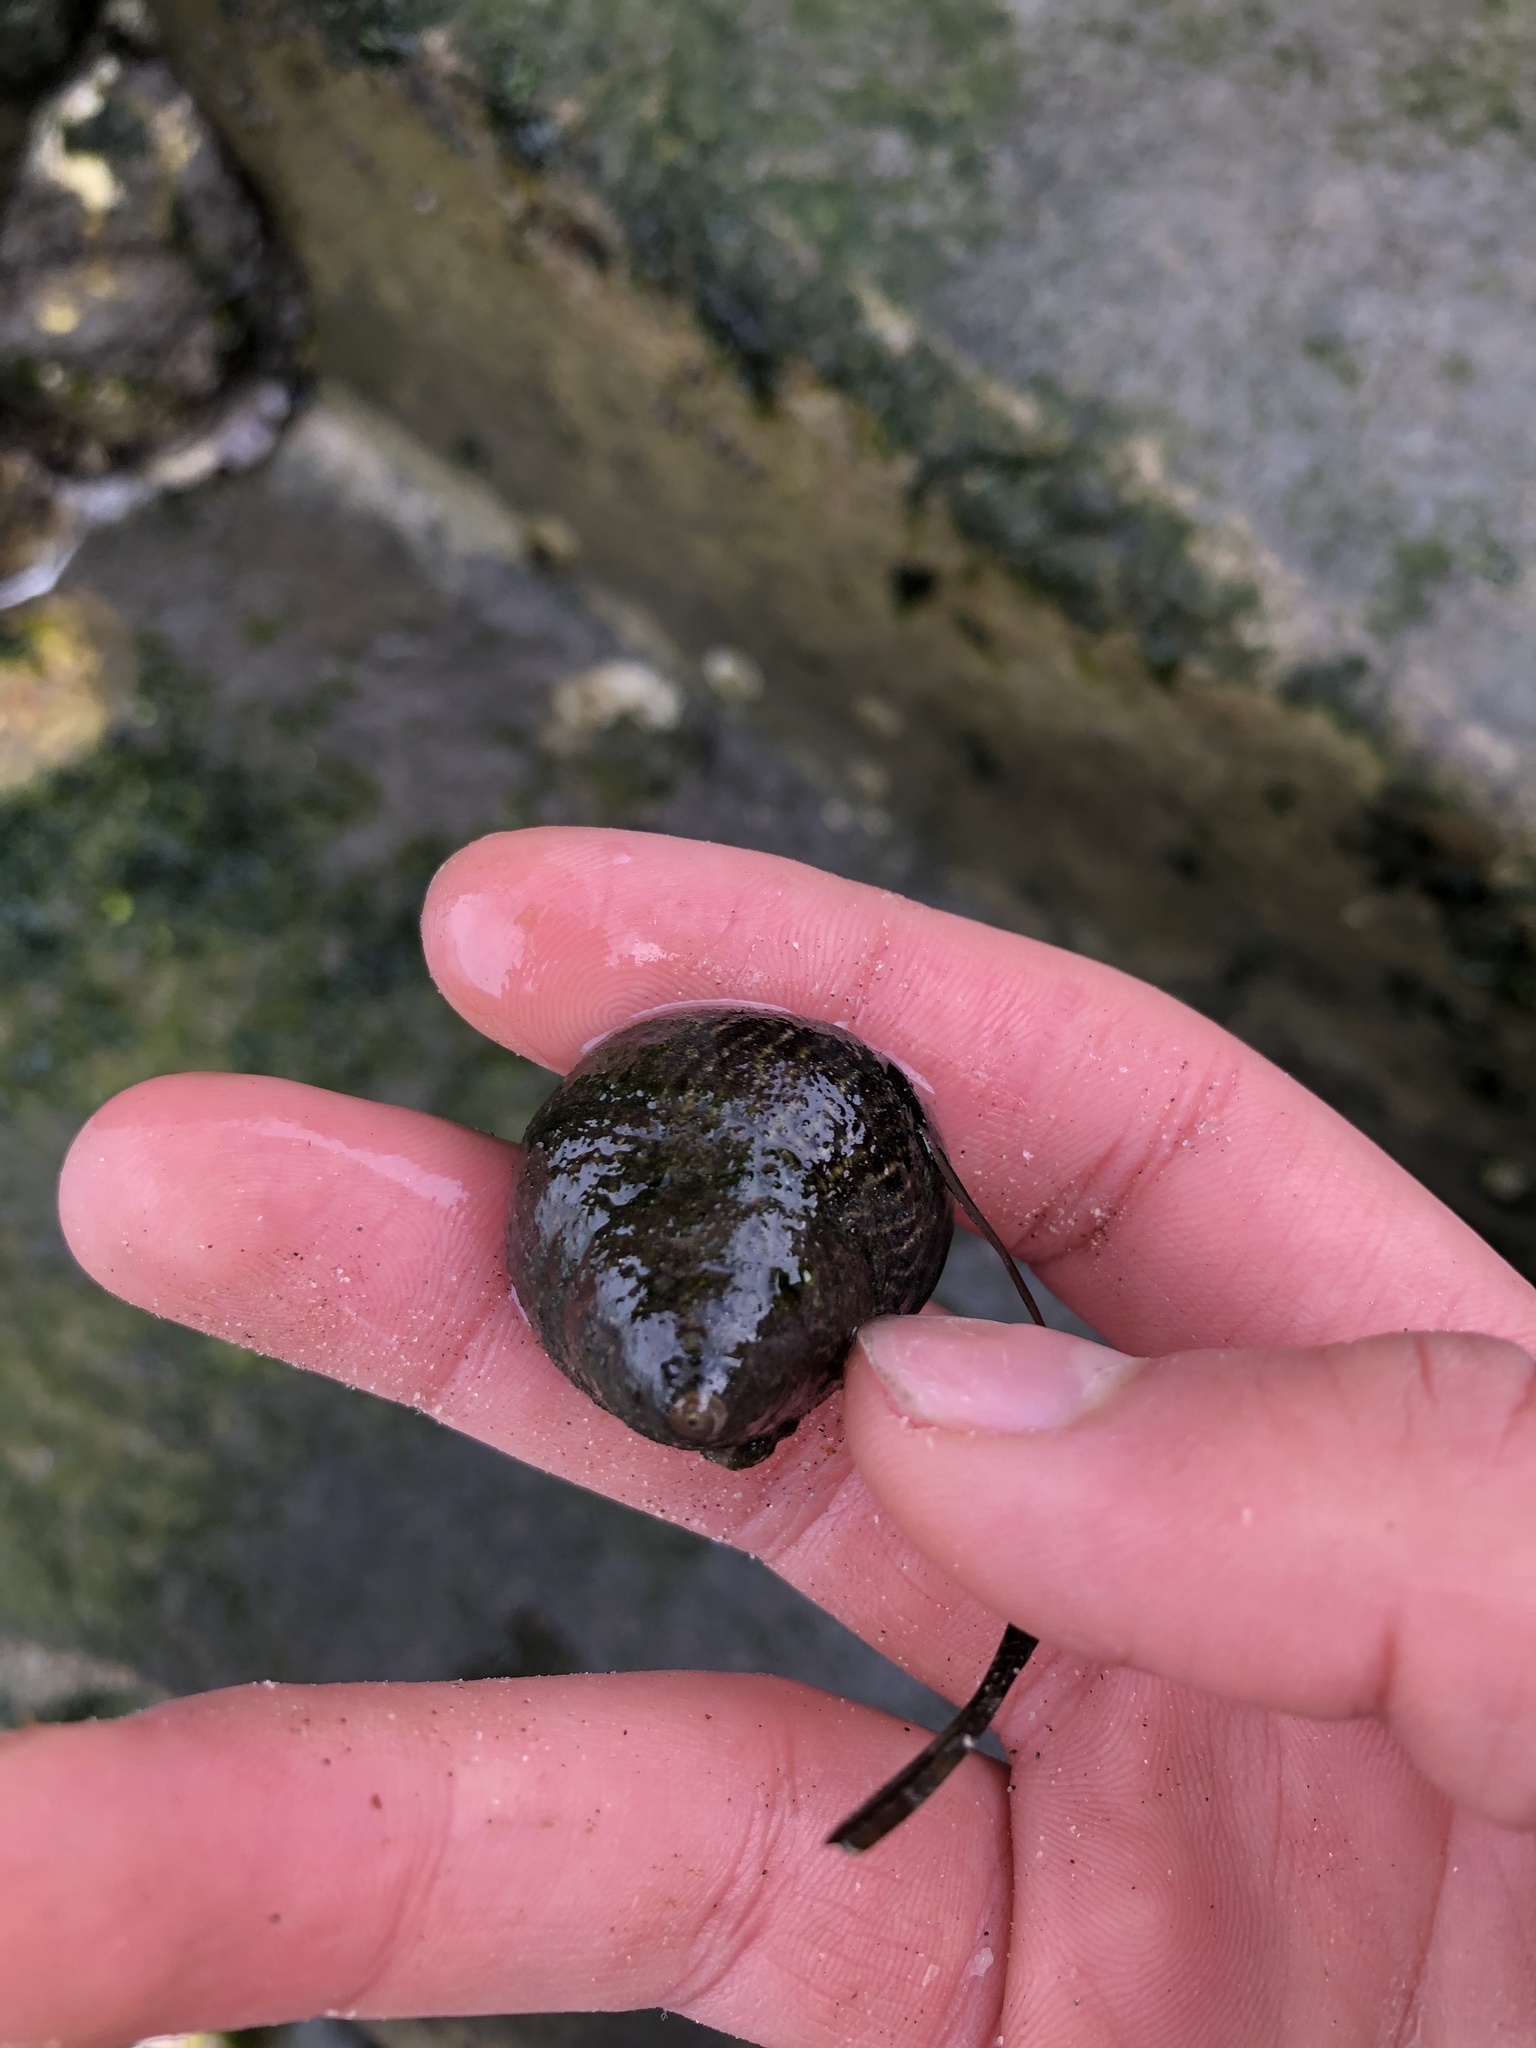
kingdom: Animalia
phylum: Mollusca
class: Gastropoda
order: Trochida
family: Tegulidae
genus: Tegula
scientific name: Tegula gallina
